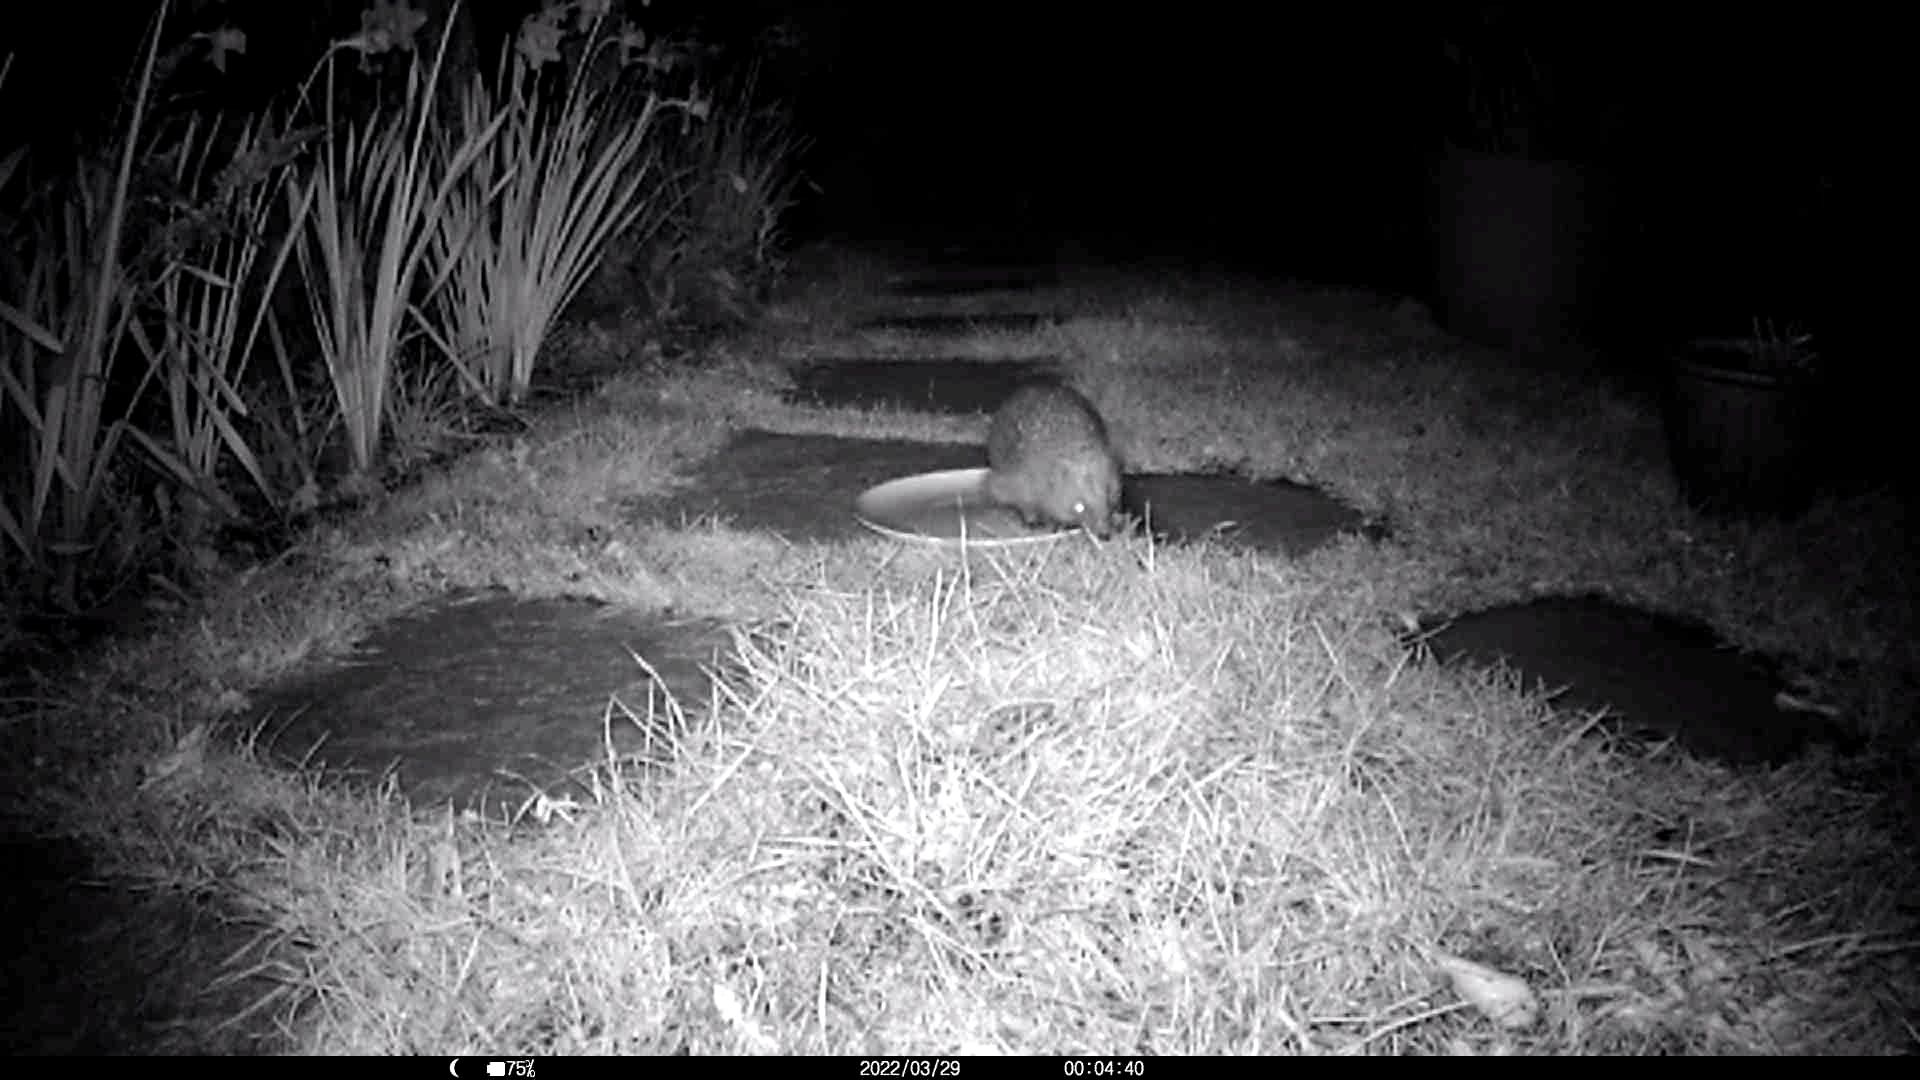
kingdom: Animalia
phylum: Chordata
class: Mammalia
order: Erinaceomorpha
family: Erinaceidae
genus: Erinaceus
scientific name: Erinaceus europaeus
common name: West european hedgehog
